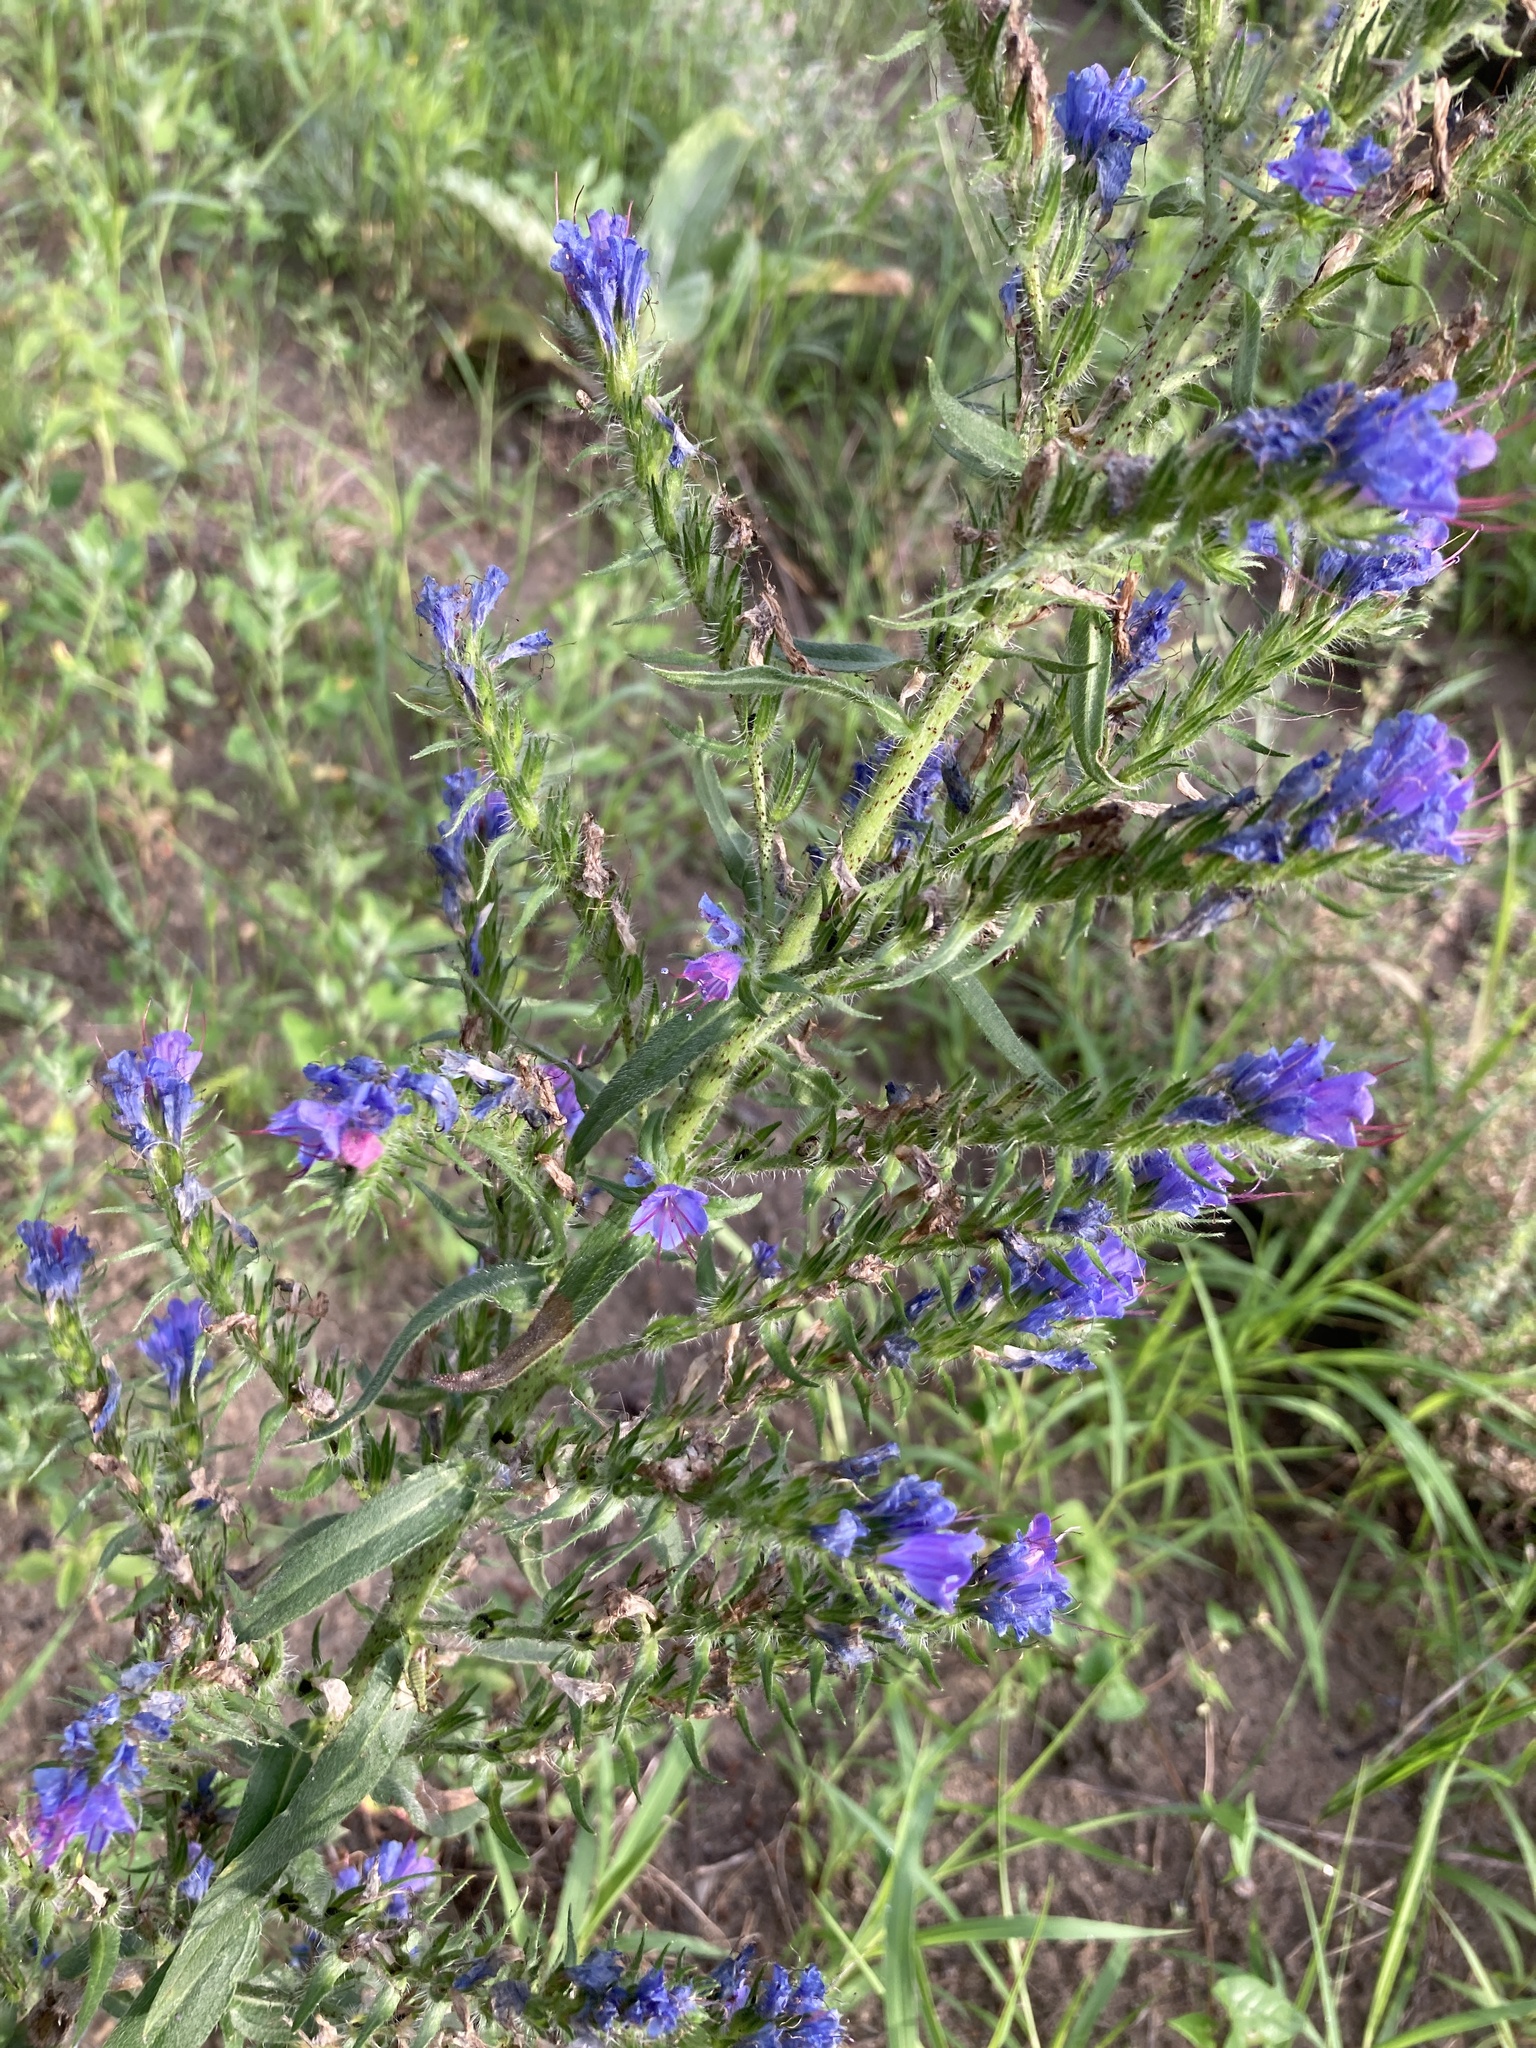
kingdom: Plantae
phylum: Tracheophyta
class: Magnoliopsida
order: Boraginales
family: Boraginaceae
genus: Echium
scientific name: Echium vulgare
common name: Common viper's bugloss
